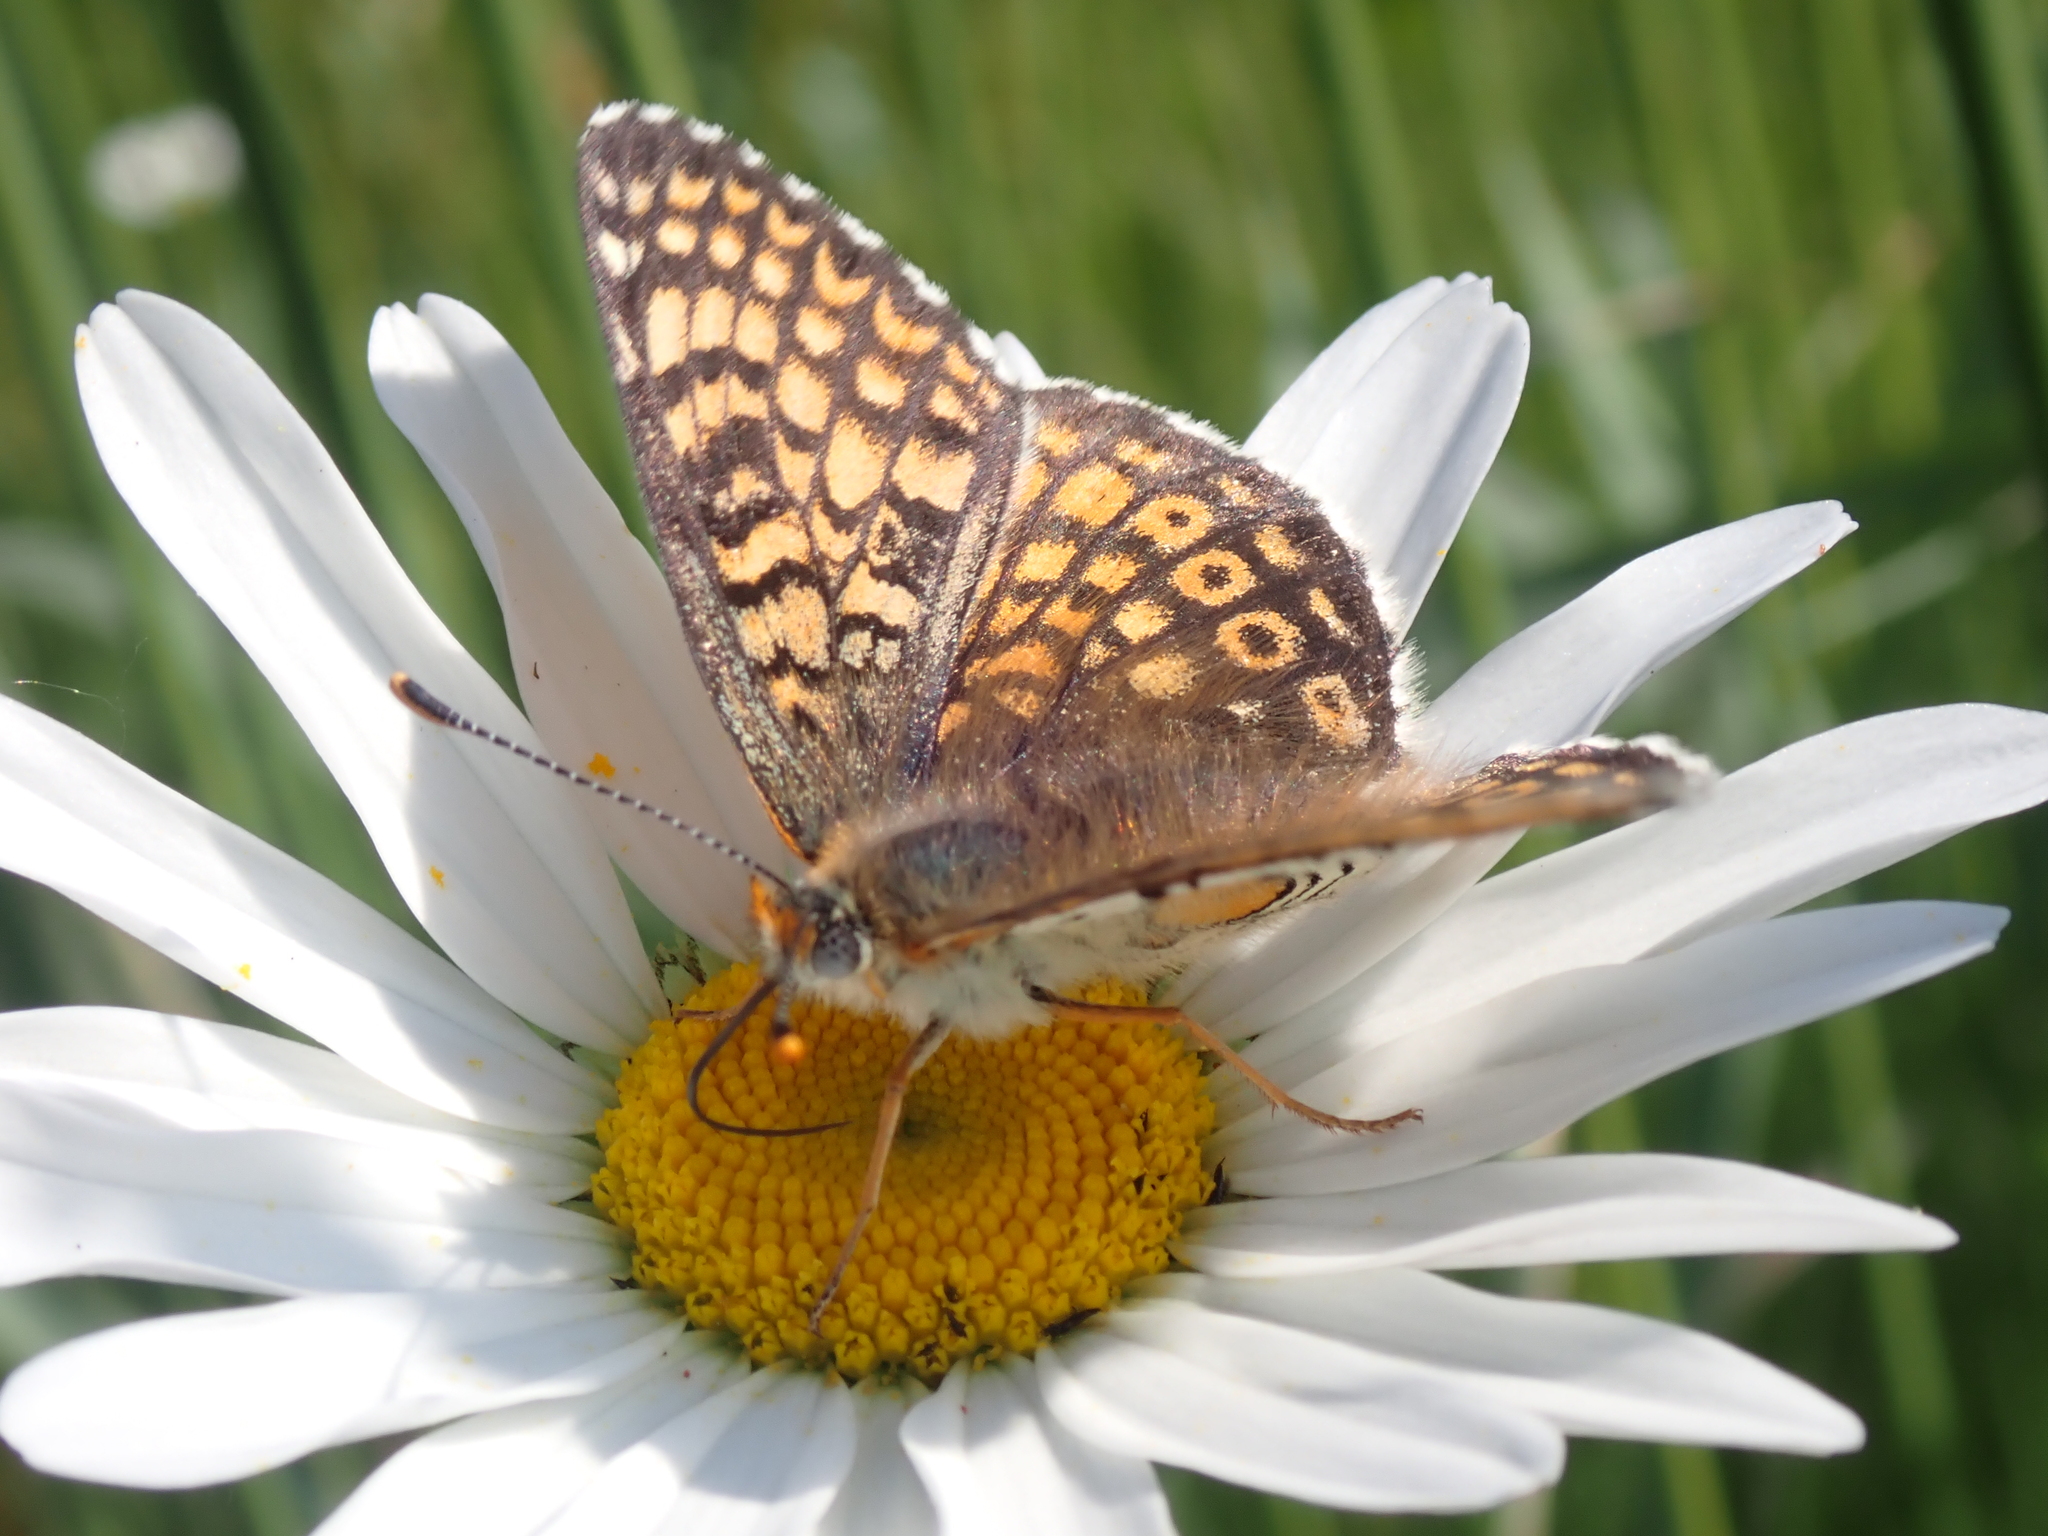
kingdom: Animalia
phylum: Arthropoda
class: Insecta
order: Lepidoptera
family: Nymphalidae
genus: Melitaea
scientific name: Melitaea cinxia
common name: Glanville fritillary
